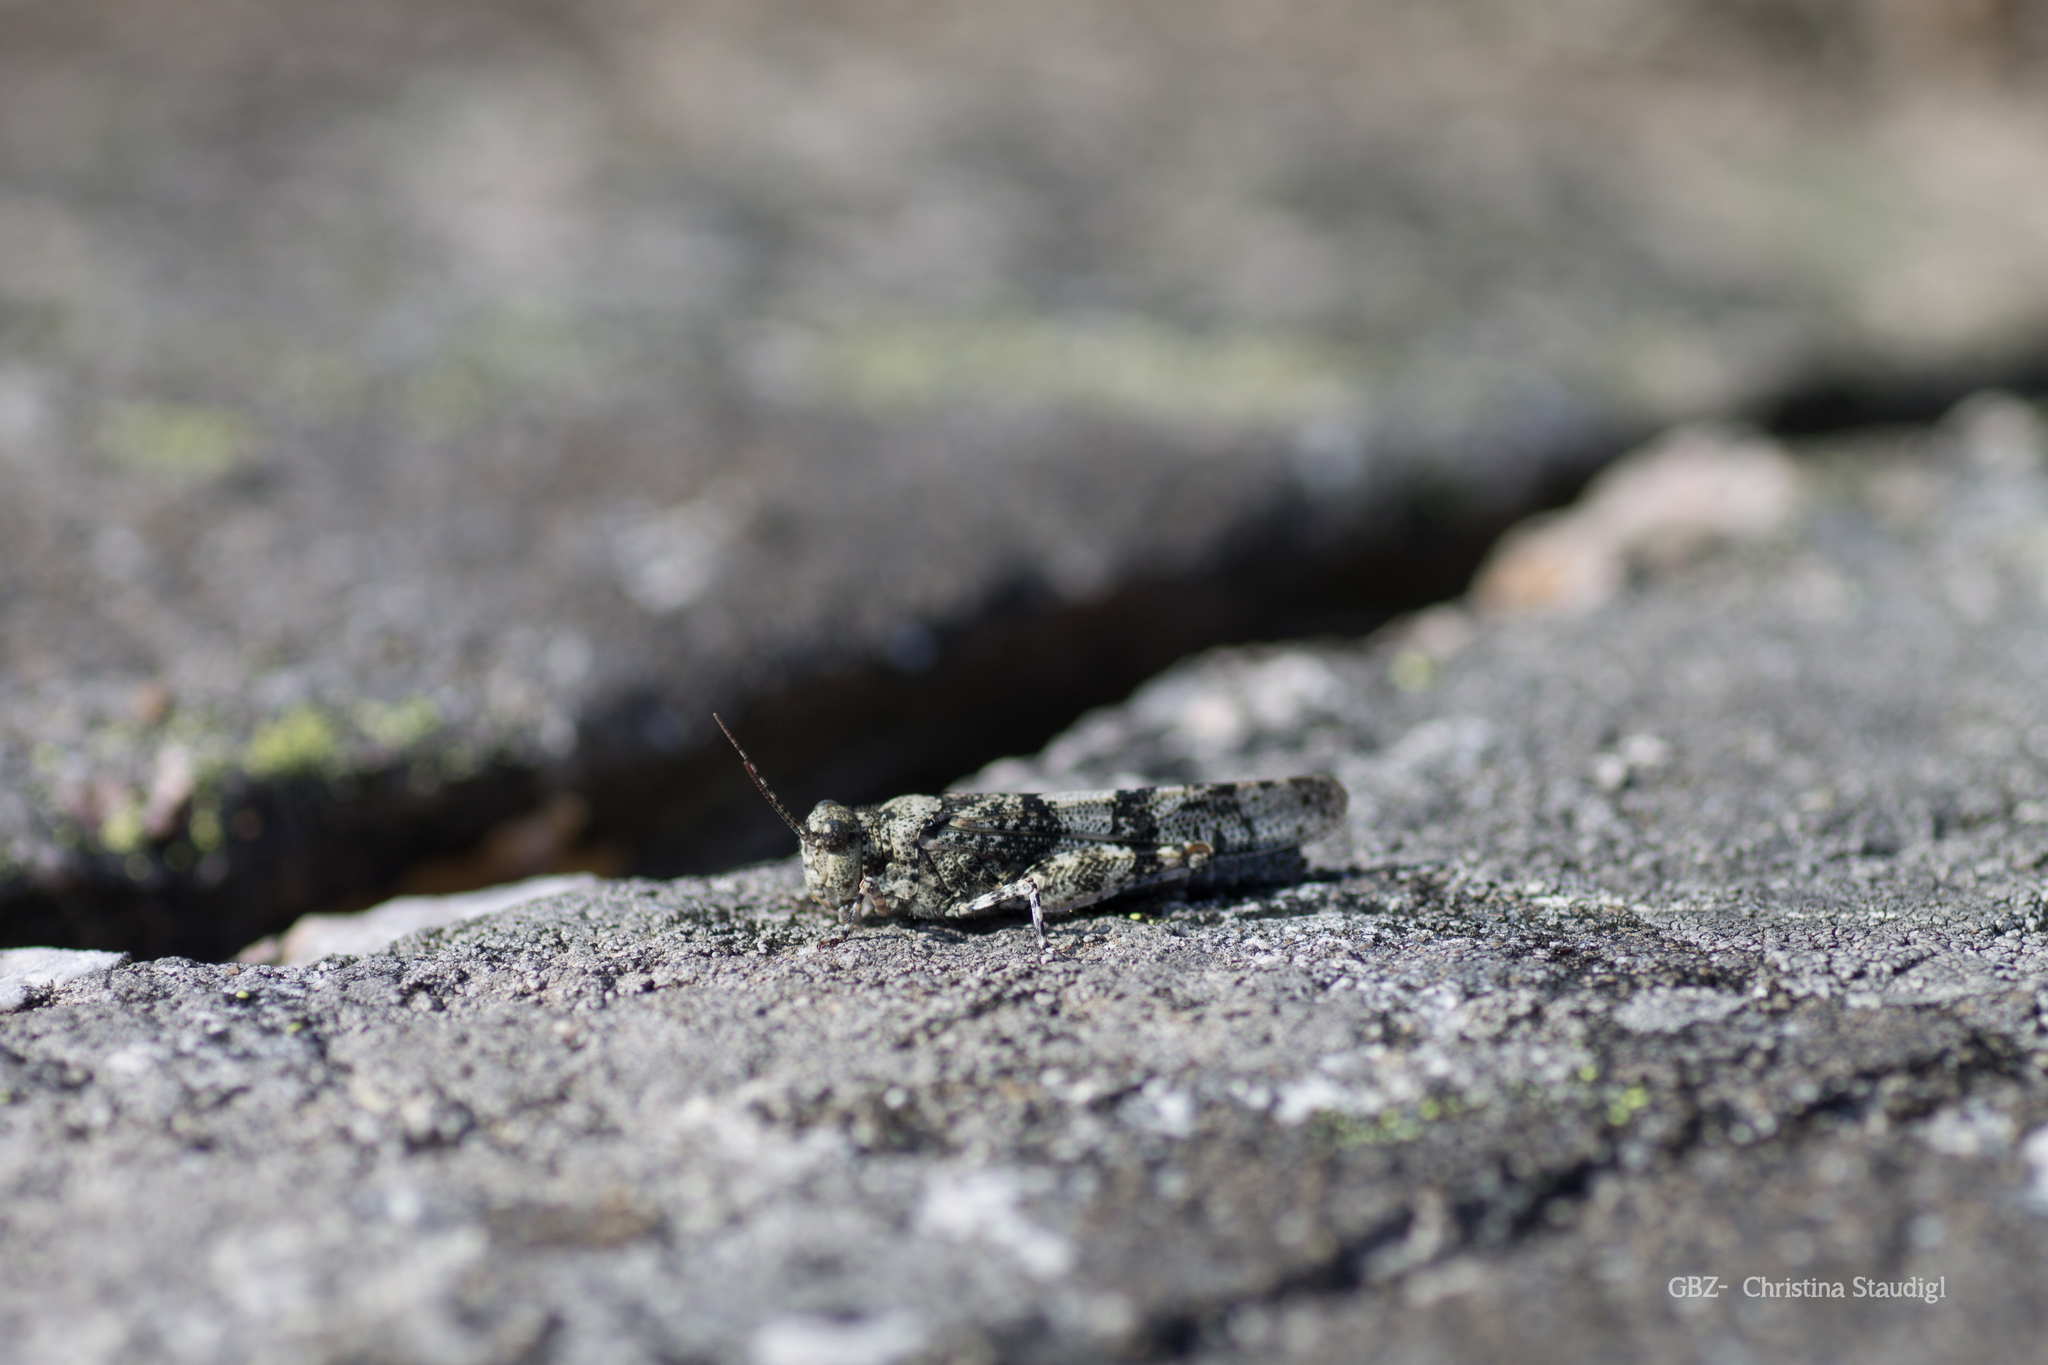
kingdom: Animalia
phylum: Arthropoda
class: Insecta
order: Orthoptera
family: Acrididae
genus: Sphingonotus
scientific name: Sphingonotus caerulans
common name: Blue-winged locust
